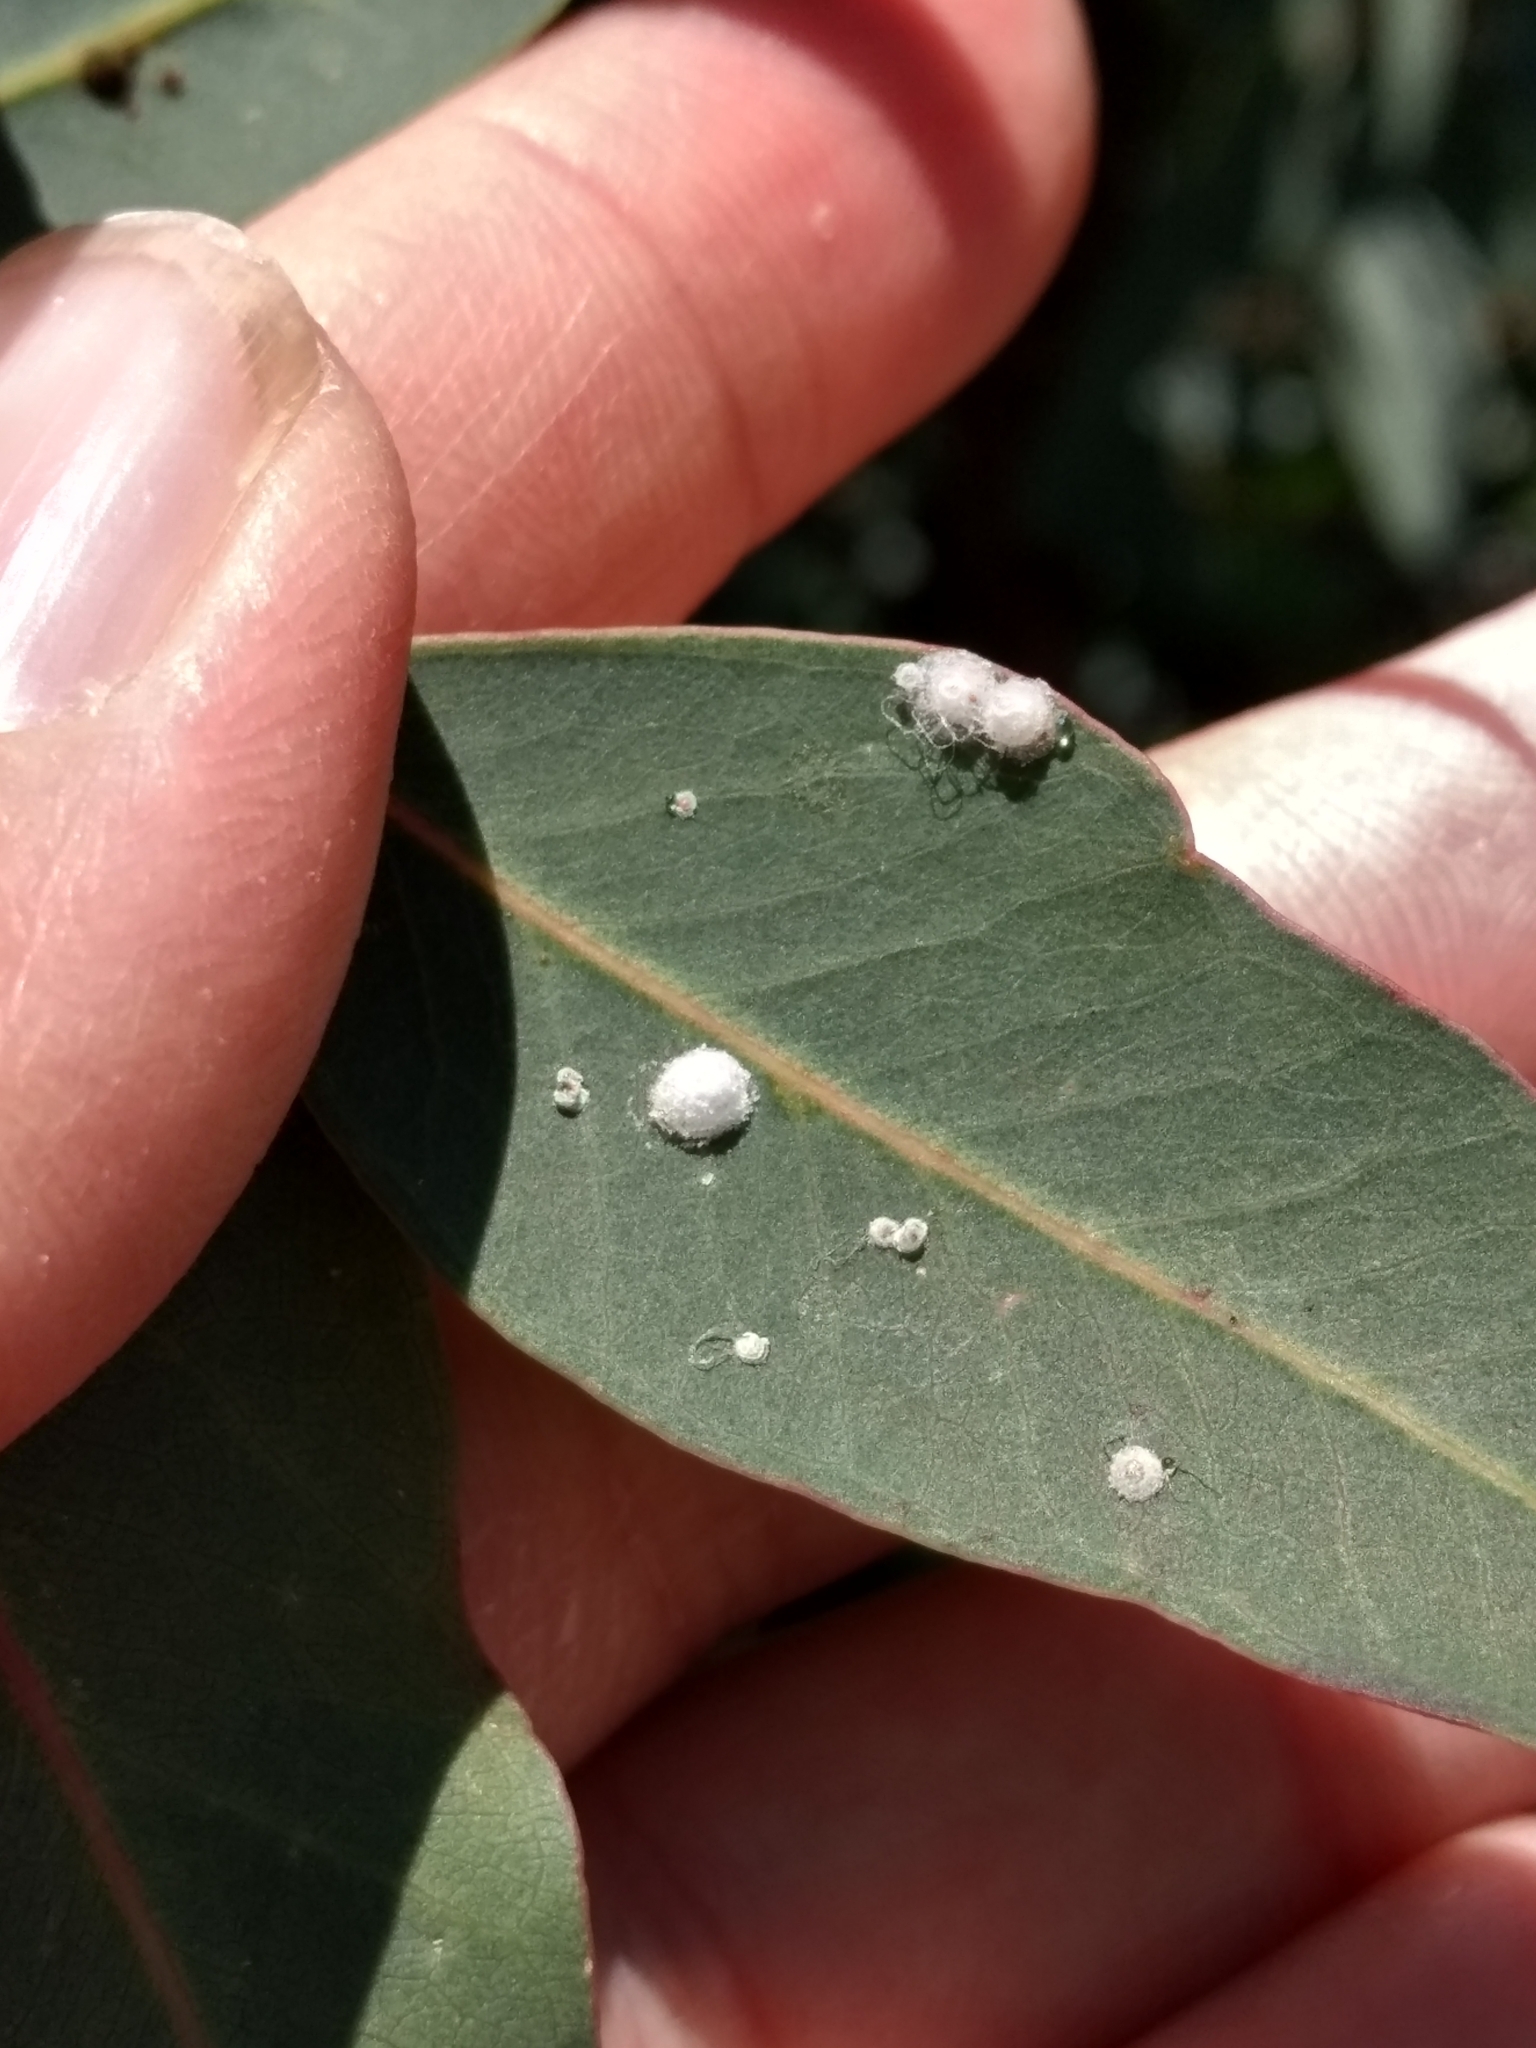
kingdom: Animalia
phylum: Arthropoda
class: Insecta
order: Hemiptera
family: Aphalaridae
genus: Glycaspis
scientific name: Glycaspis brimblecombei
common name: Red gum lerp psyllid
